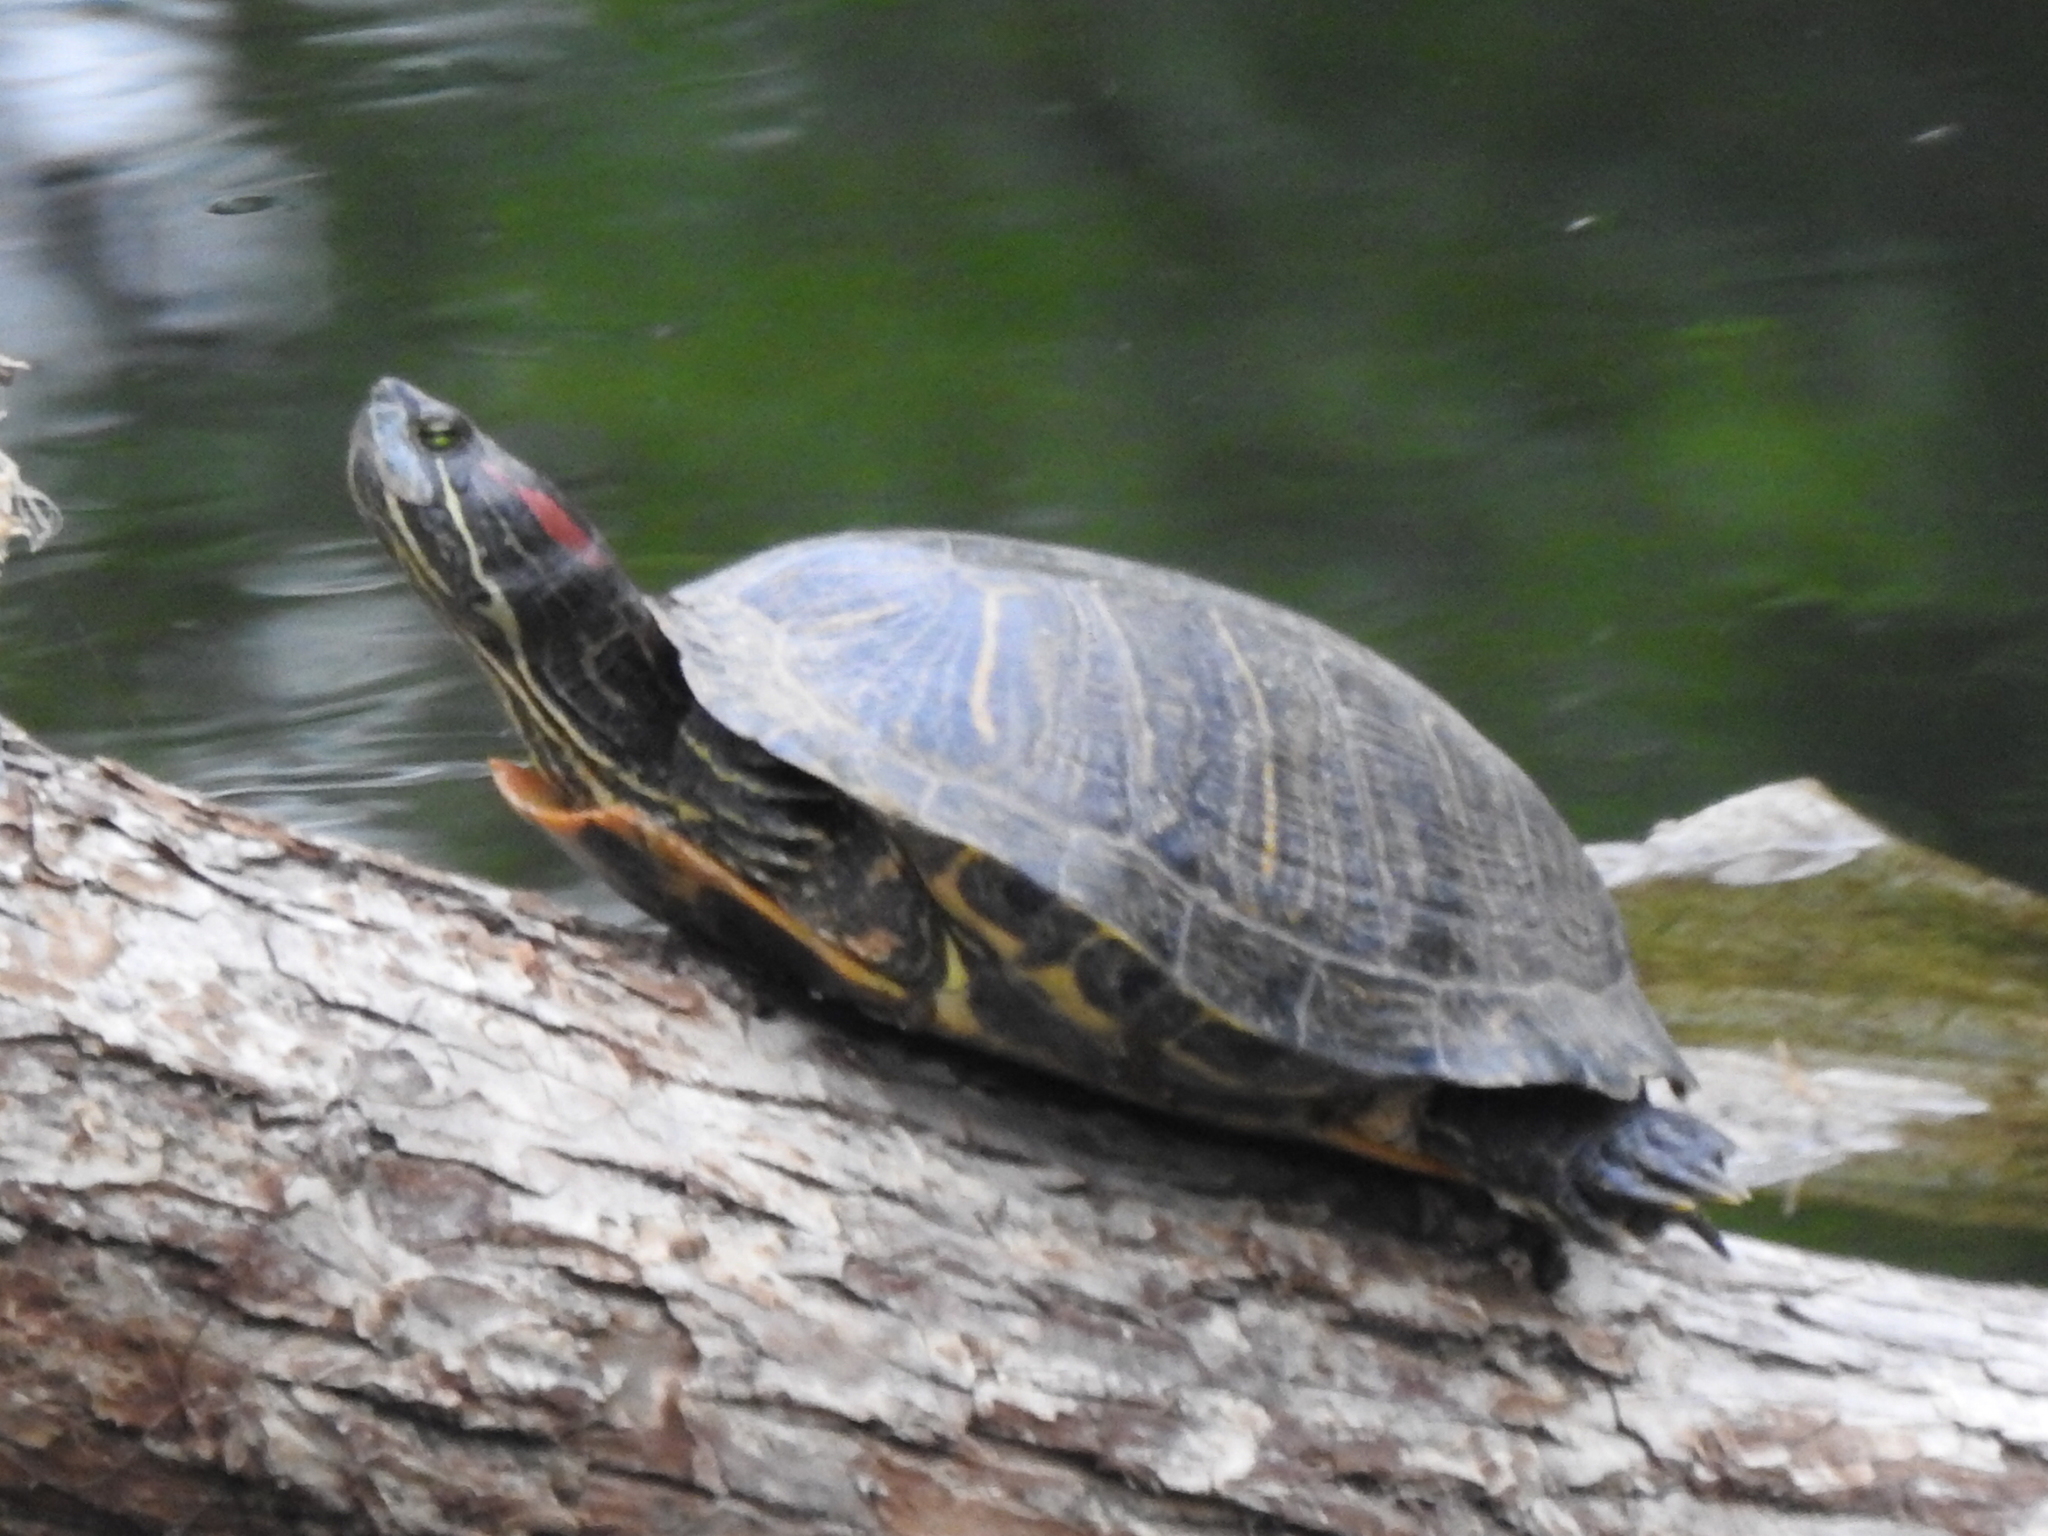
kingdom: Animalia
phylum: Chordata
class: Testudines
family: Emydidae
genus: Trachemys
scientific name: Trachemys scripta
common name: Slider
